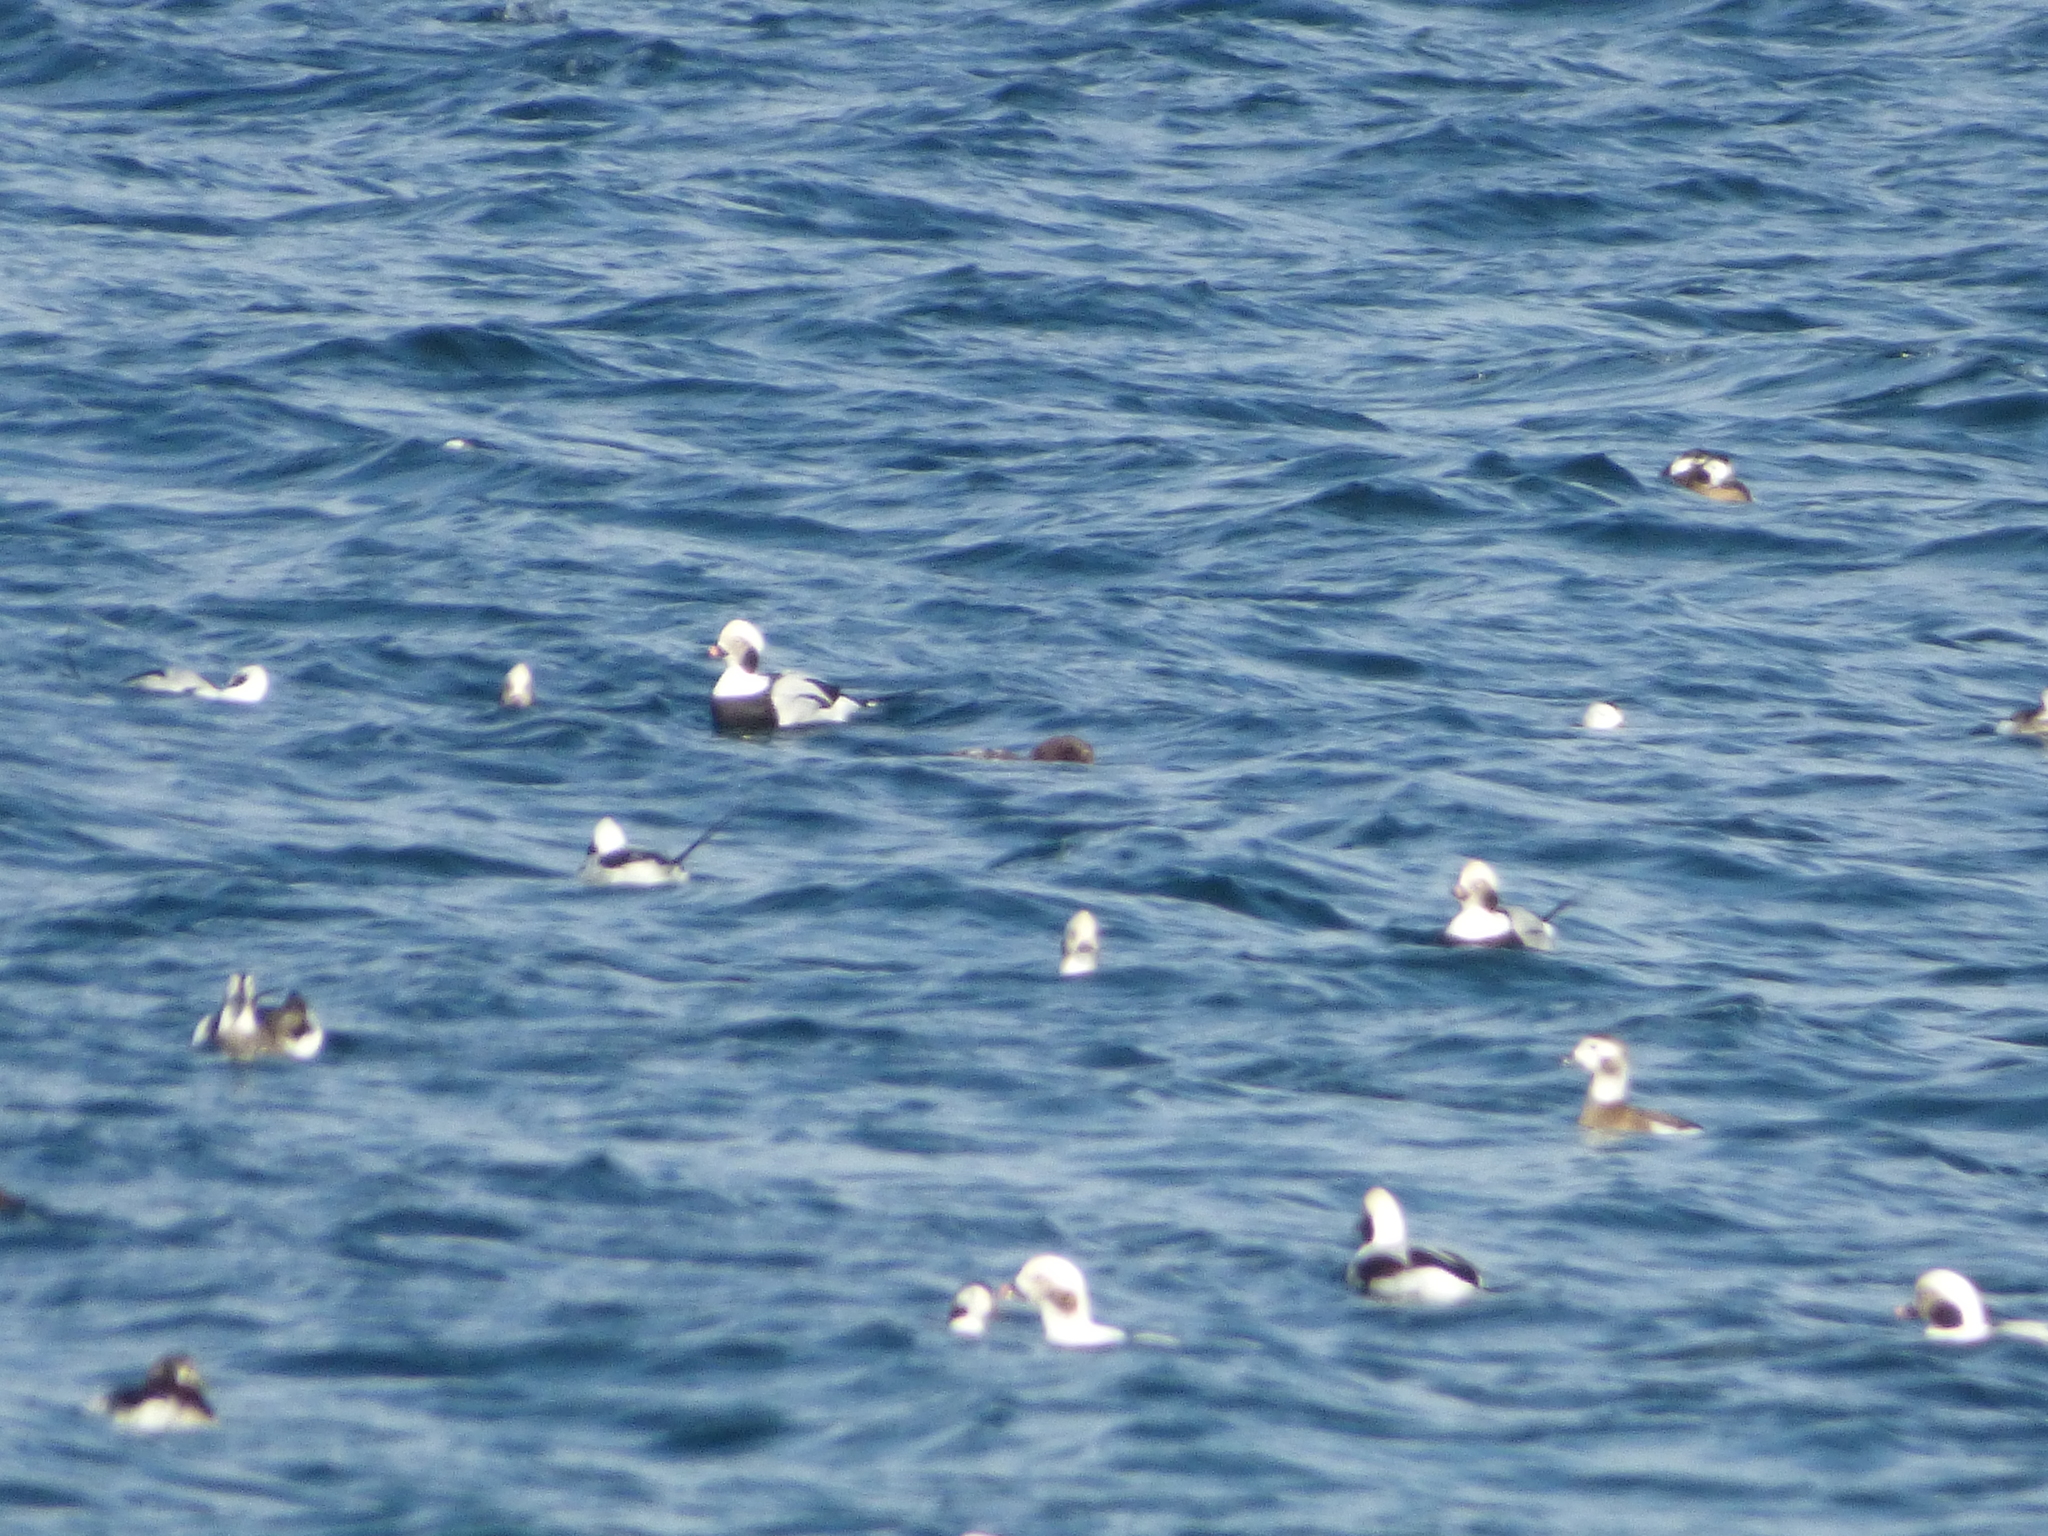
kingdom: Animalia
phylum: Chordata
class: Aves
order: Anseriformes
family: Anatidae
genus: Clangula
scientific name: Clangula hyemalis
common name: Long-tailed duck
